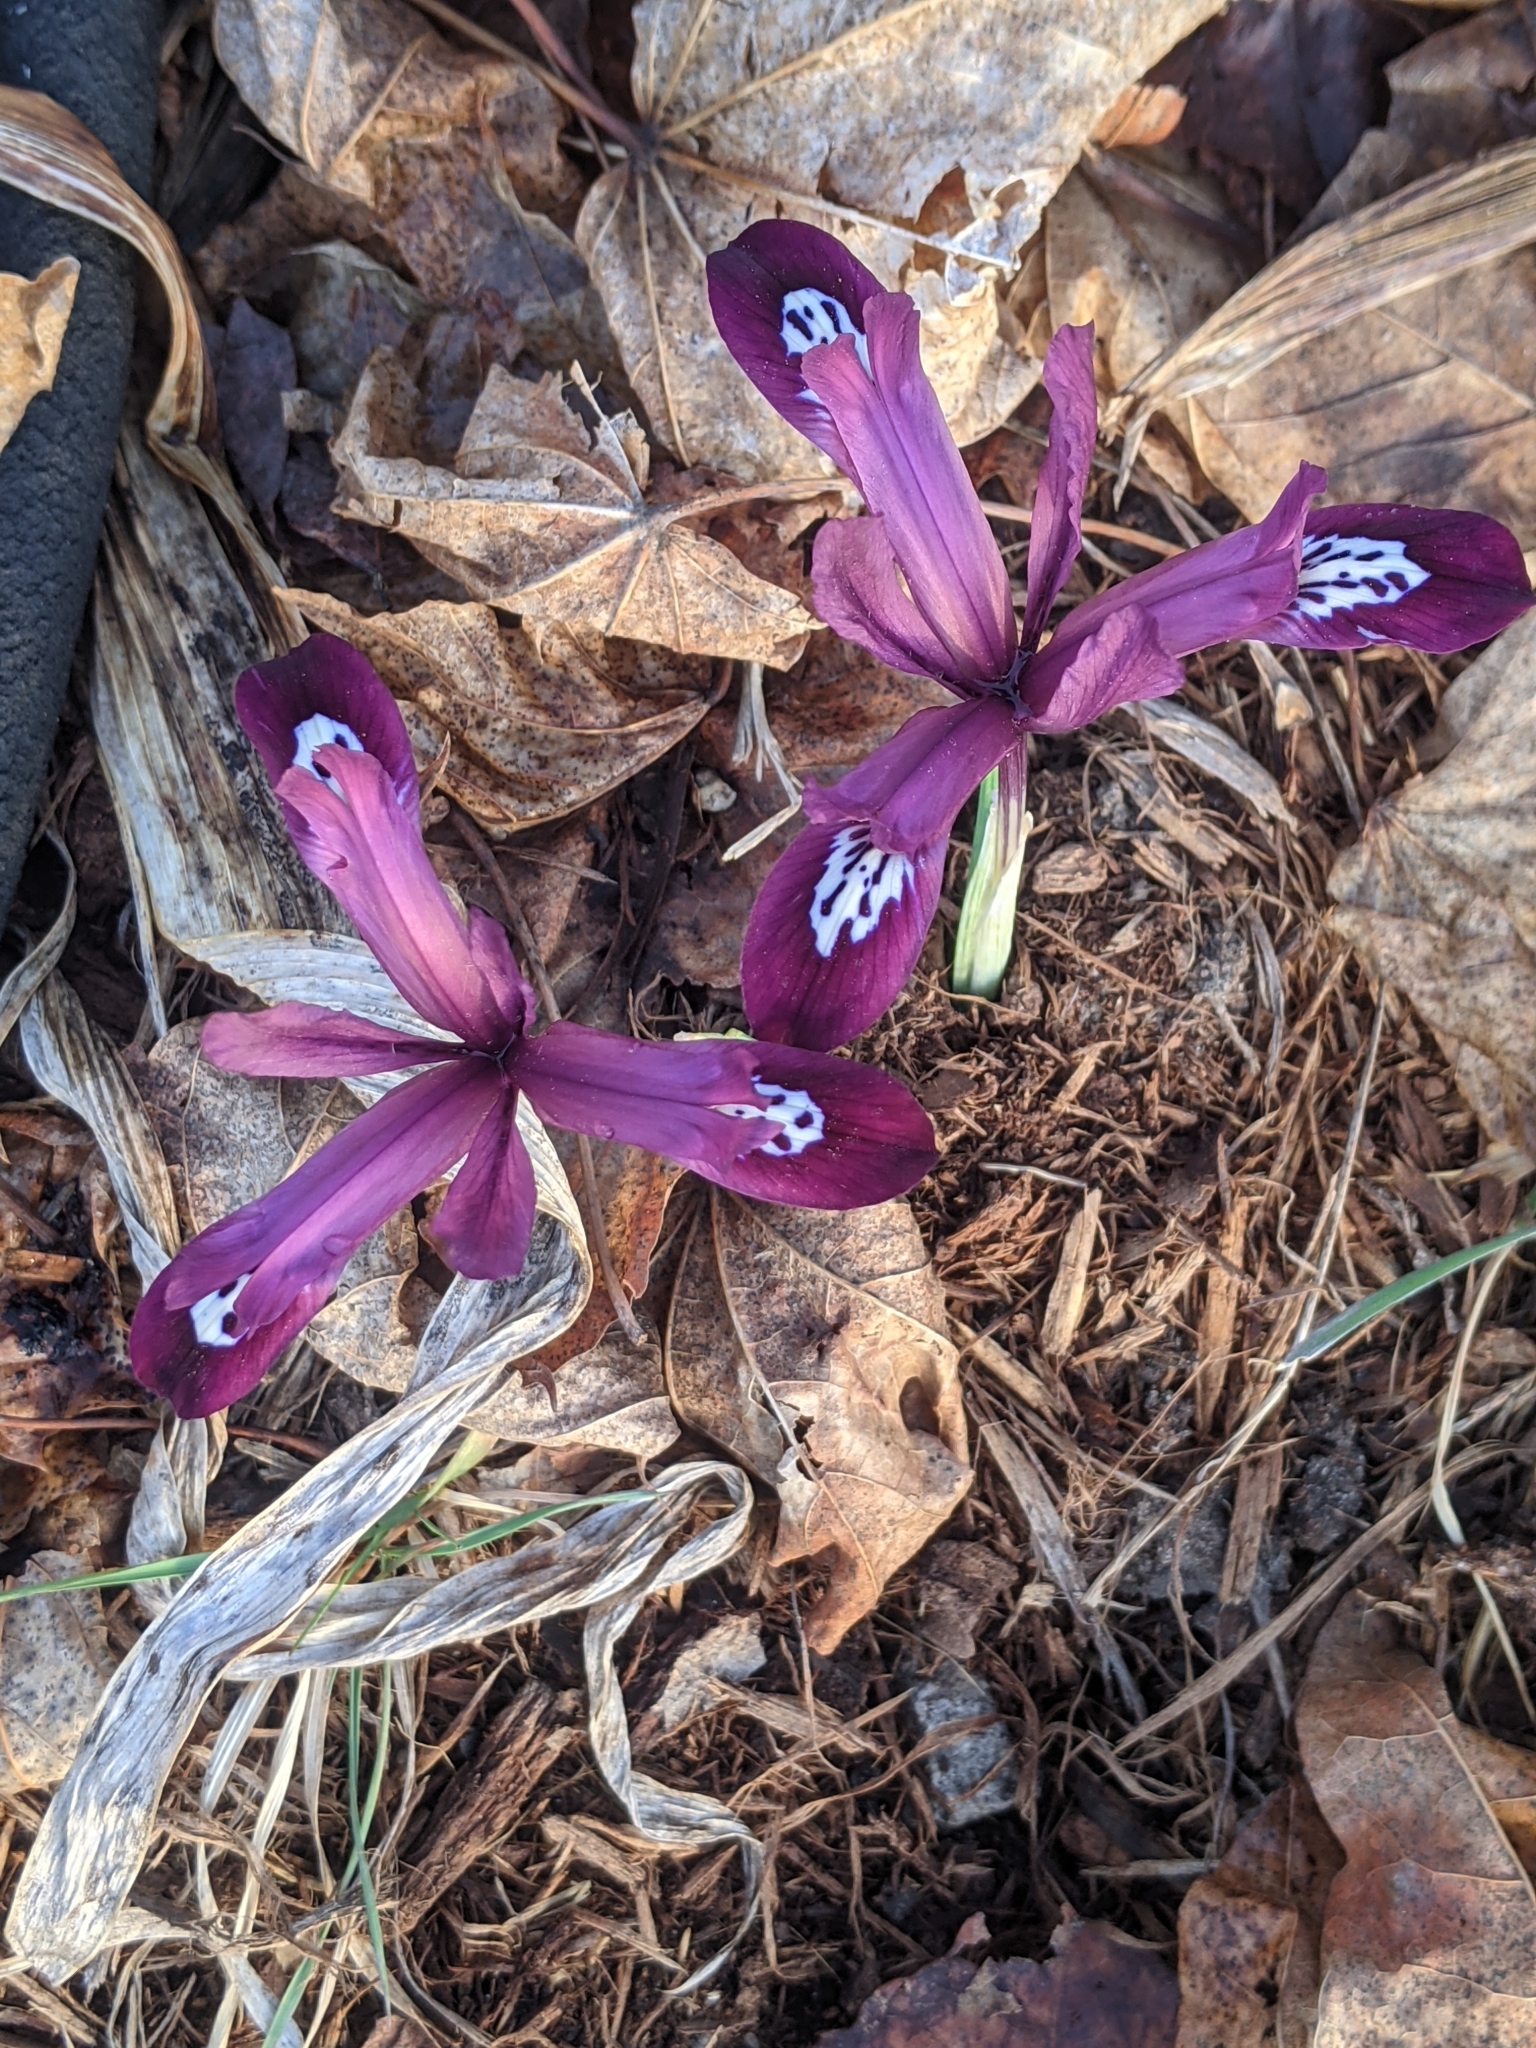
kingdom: Plantae
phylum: Tracheophyta
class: Liliopsida
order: Asparagales
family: Iridaceae
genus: Iris
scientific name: Iris reticulata
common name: Netted iris
